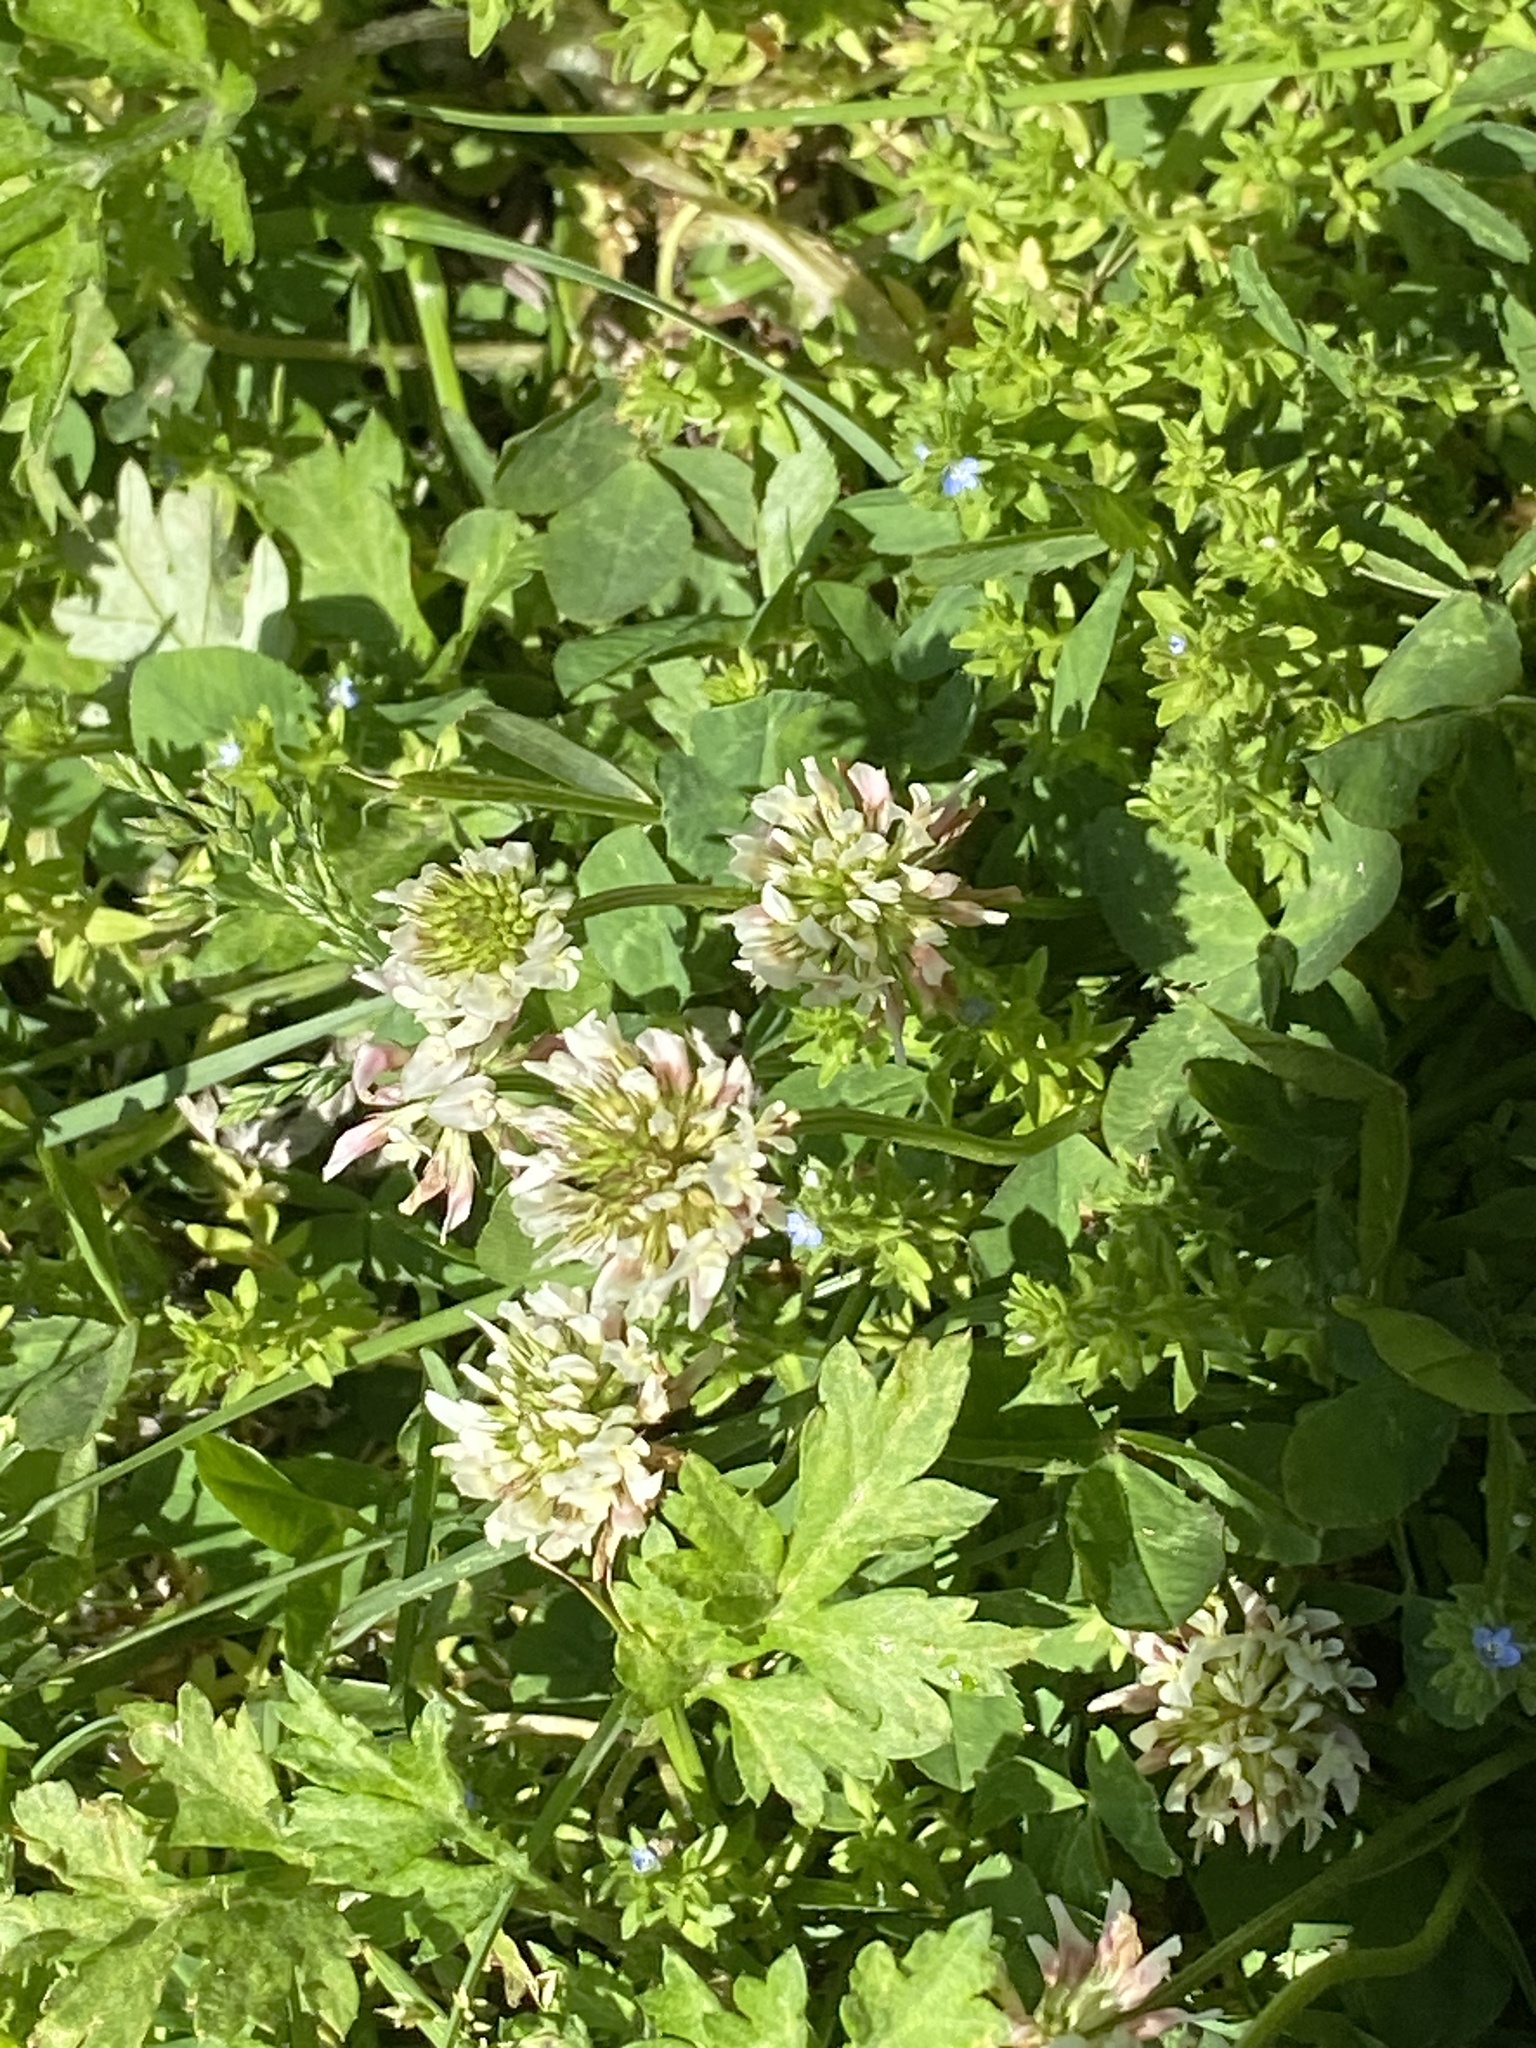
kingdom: Plantae
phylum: Tracheophyta
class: Magnoliopsida
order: Fabales
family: Fabaceae
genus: Trifolium
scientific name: Trifolium repens
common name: White clover
